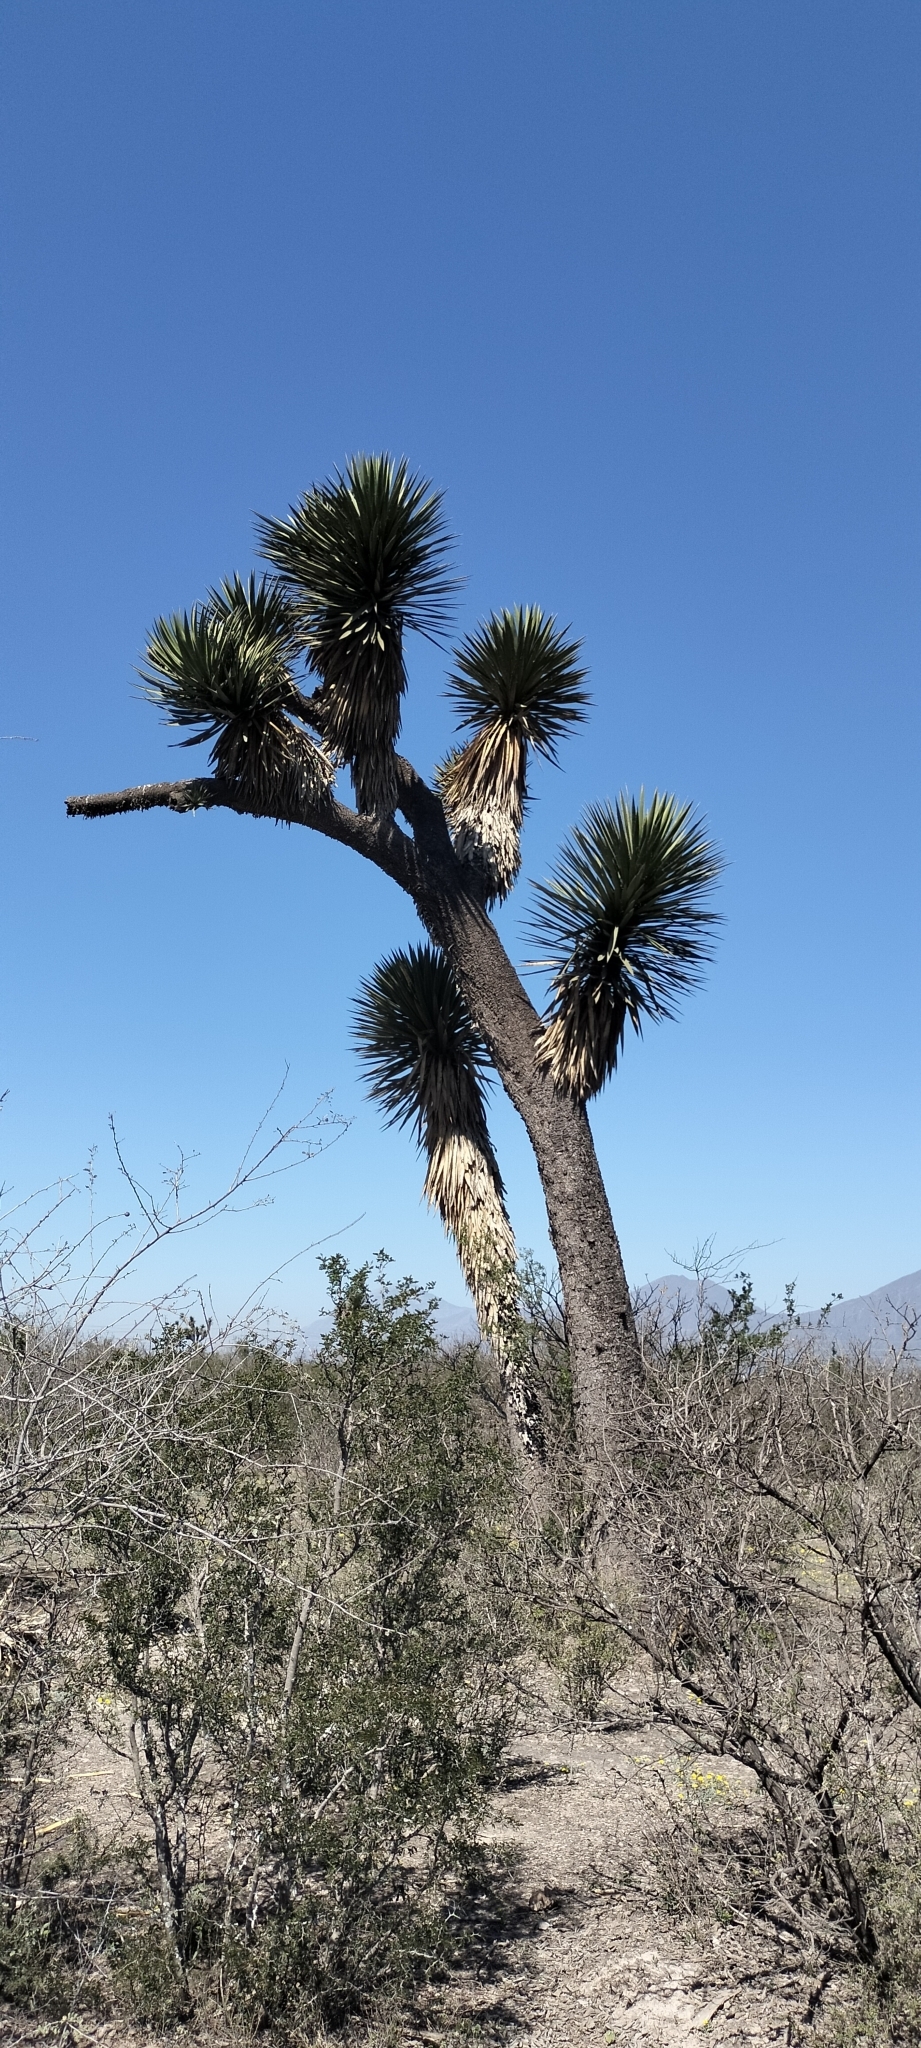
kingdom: Plantae
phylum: Tracheophyta
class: Liliopsida
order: Asparagales
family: Asparagaceae
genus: Yucca
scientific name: Yucca filifera
